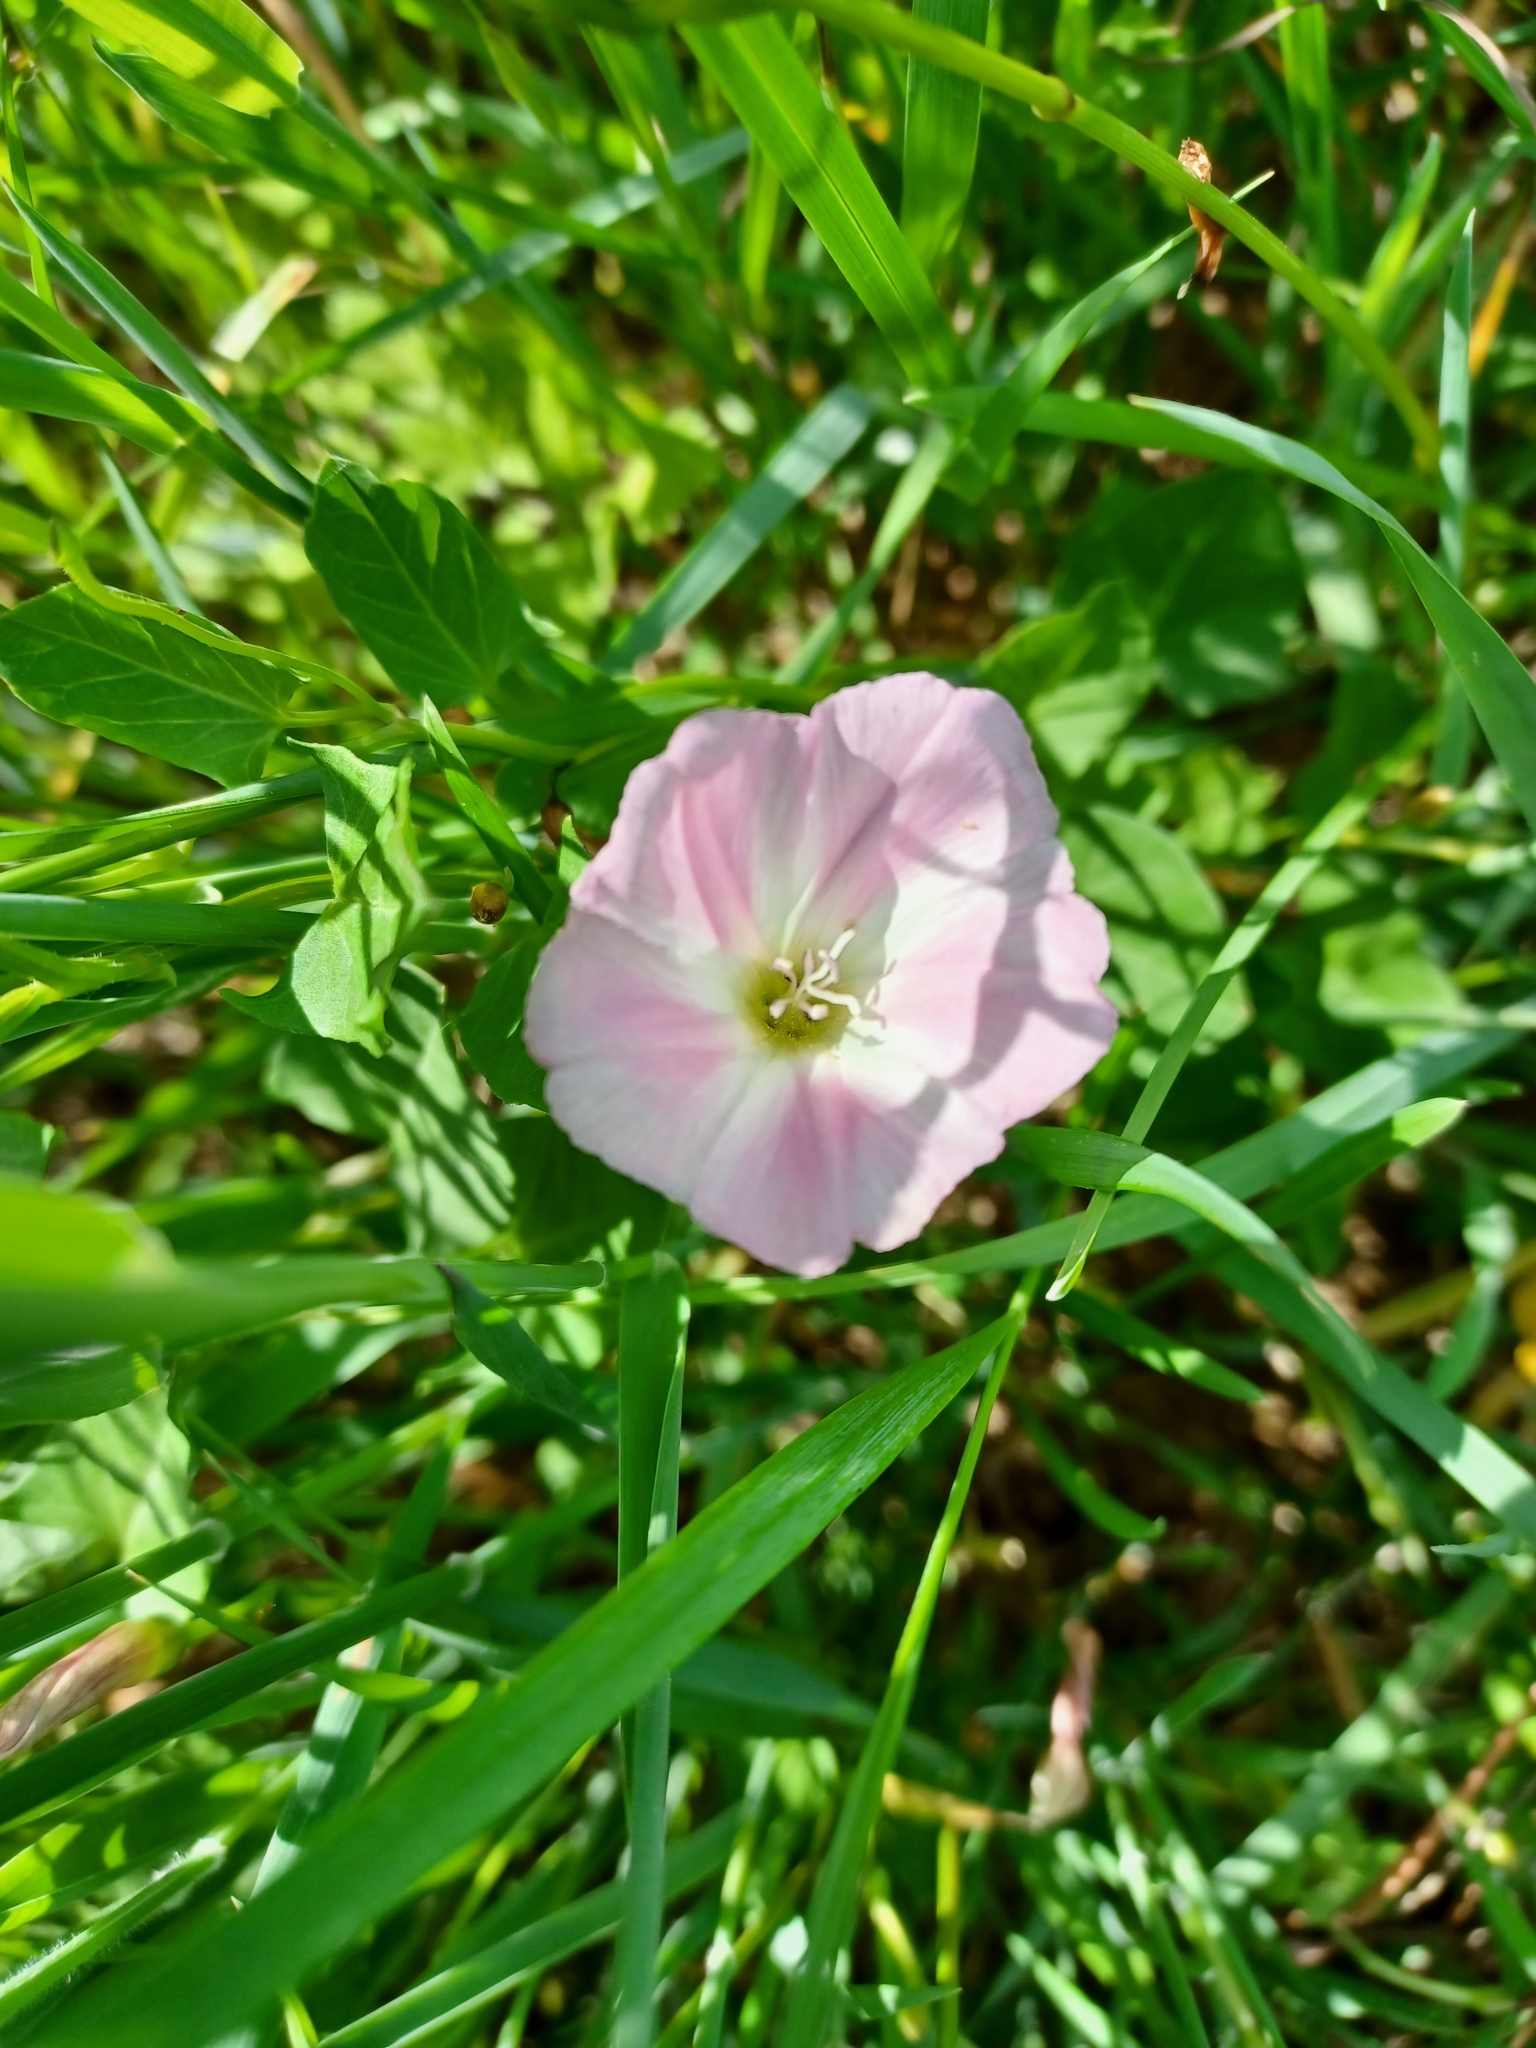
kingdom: Plantae
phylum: Tracheophyta
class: Magnoliopsida
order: Solanales
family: Convolvulaceae
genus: Convolvulus
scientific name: Convolvulus arvensis
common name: Field bindweed
